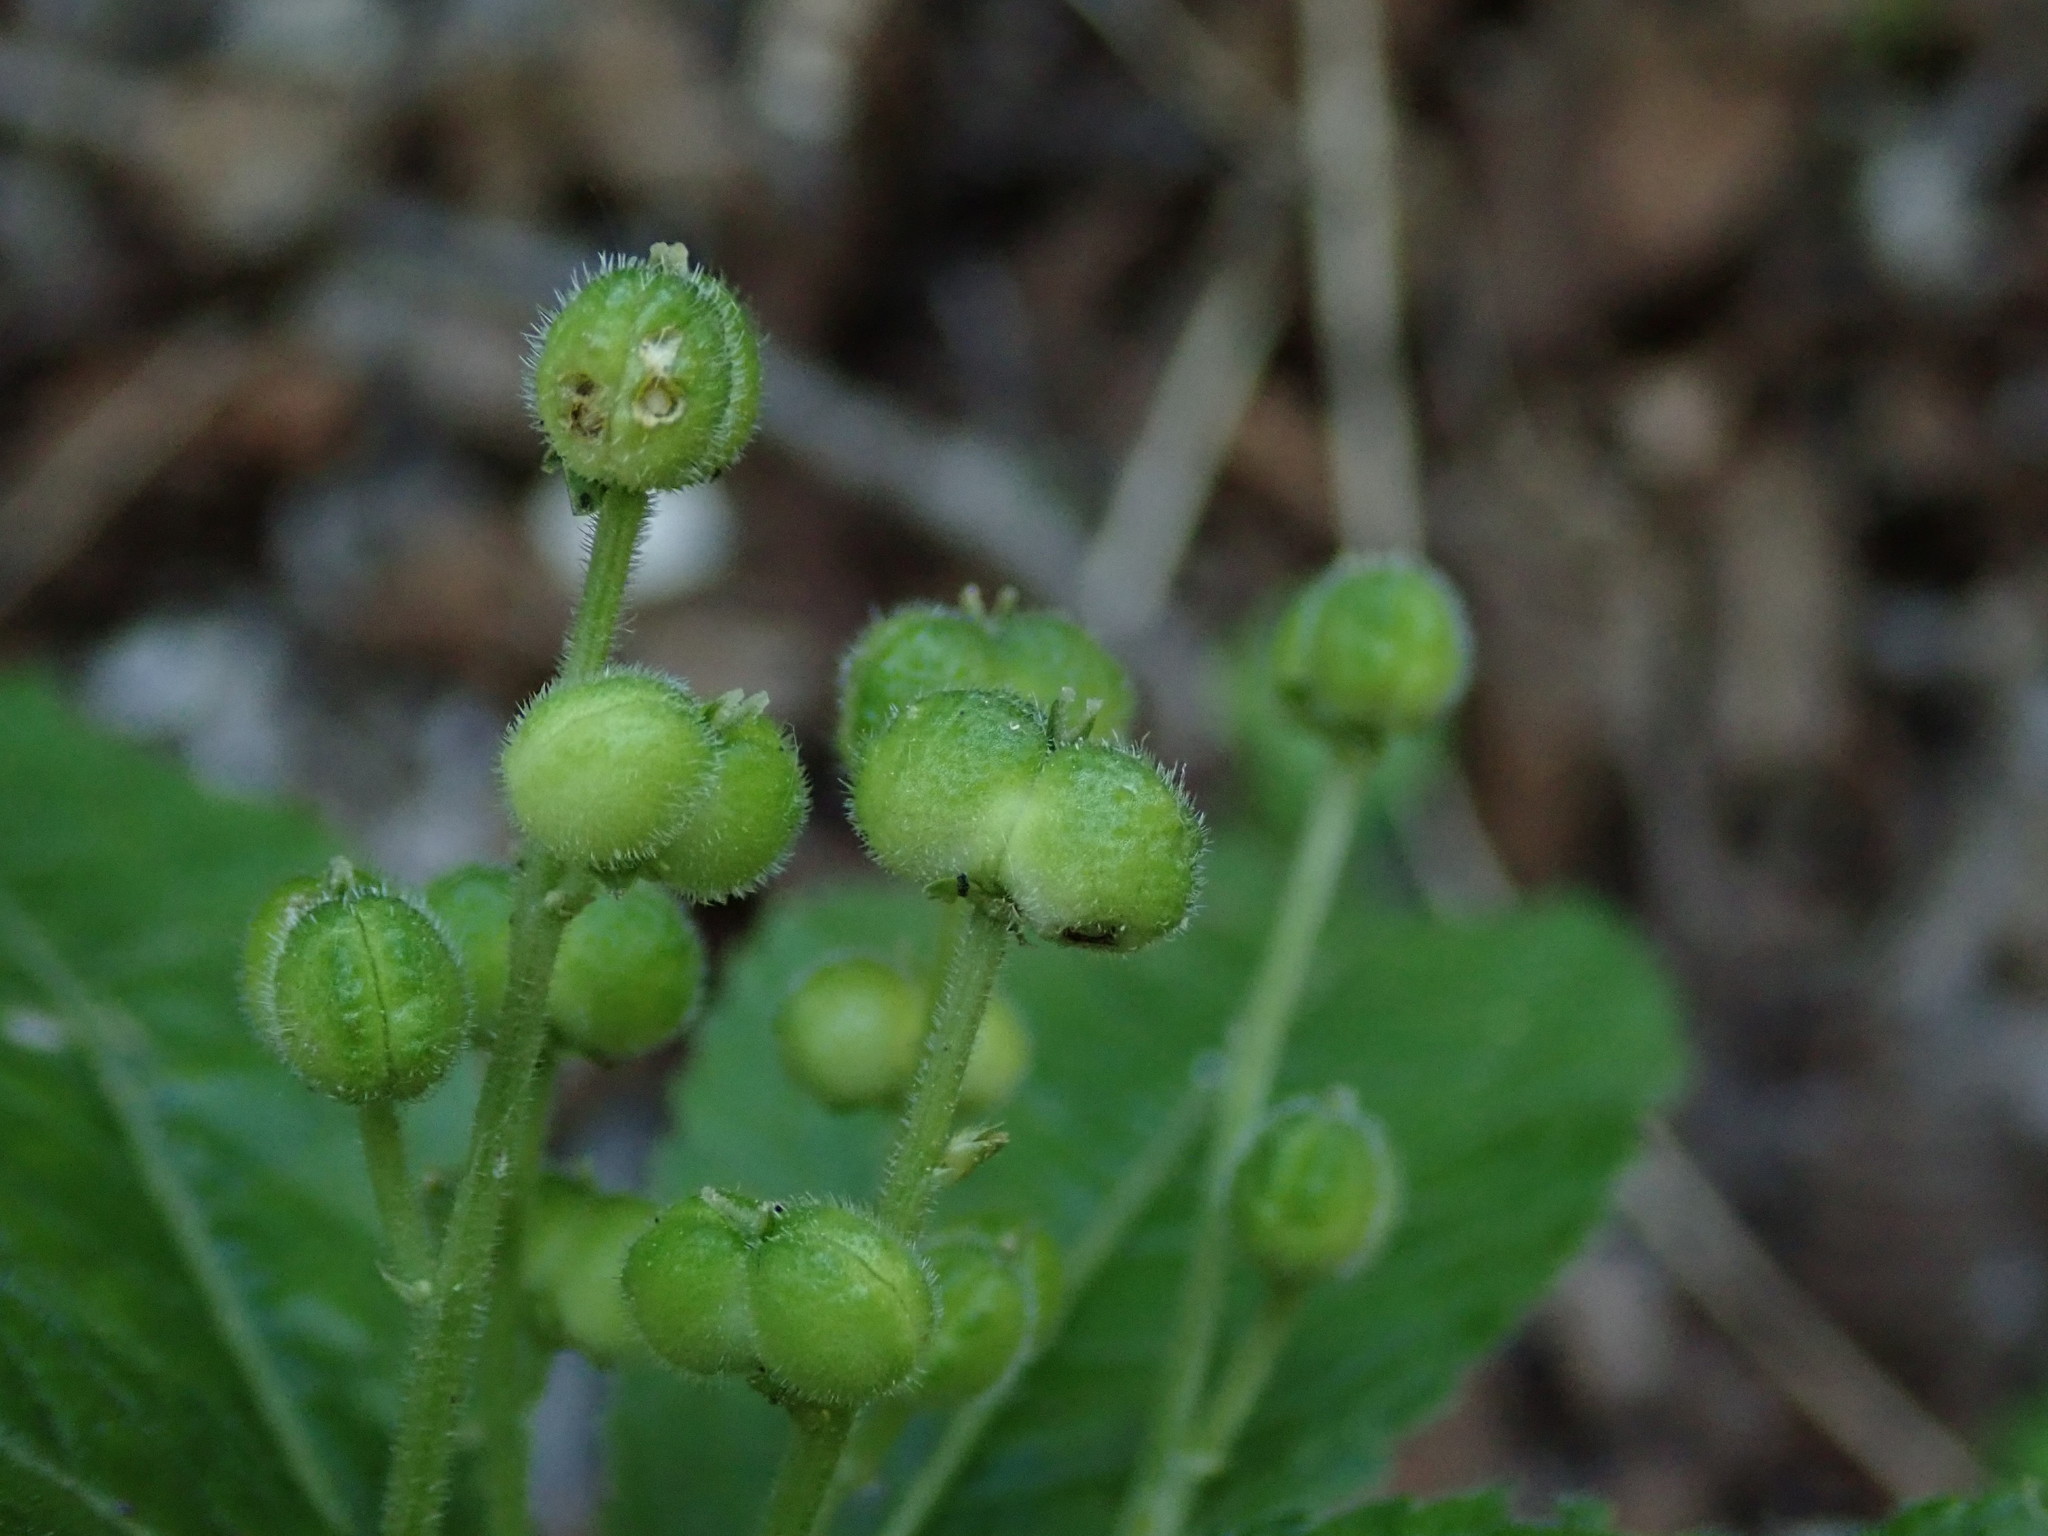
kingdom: Plantae
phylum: Tracheophyta
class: Magnoliopsida
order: Malpighiales
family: Euphorbiaceae
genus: Mercurialis
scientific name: Mercurialis perennis
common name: Dog mercury
